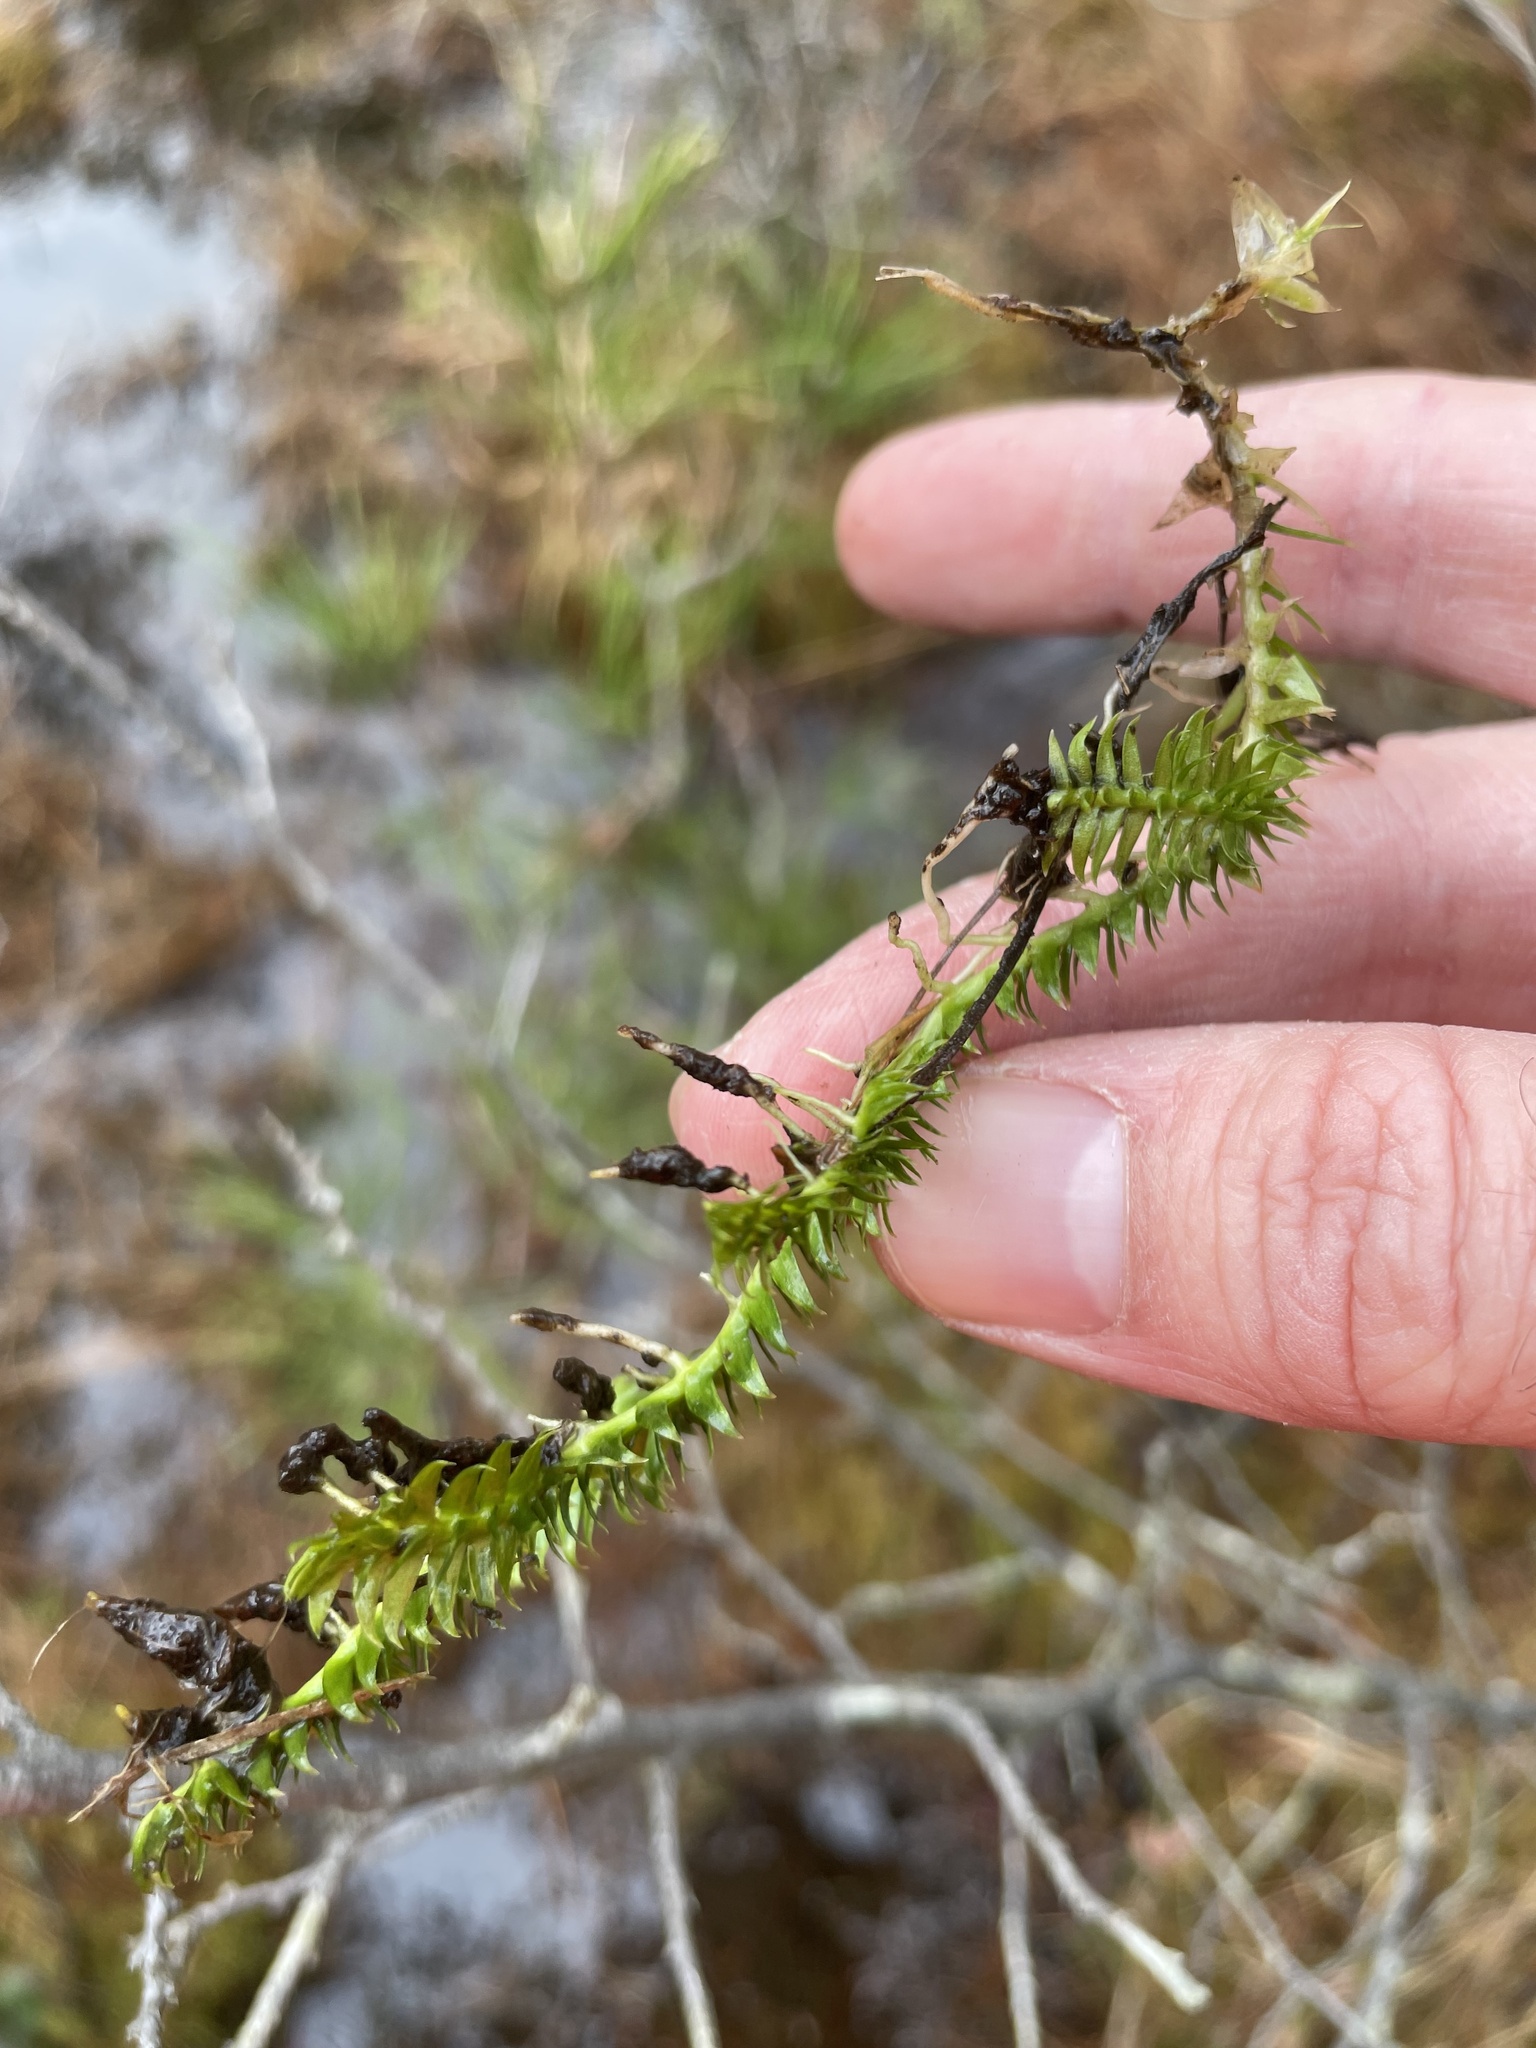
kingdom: Plantae
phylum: Tracheophyta
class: Lycopodiopsida
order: Lycopodiales
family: Lycopodiaceae
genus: Pseudolycopodiella
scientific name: Pseudolycopodiella caroliniana
